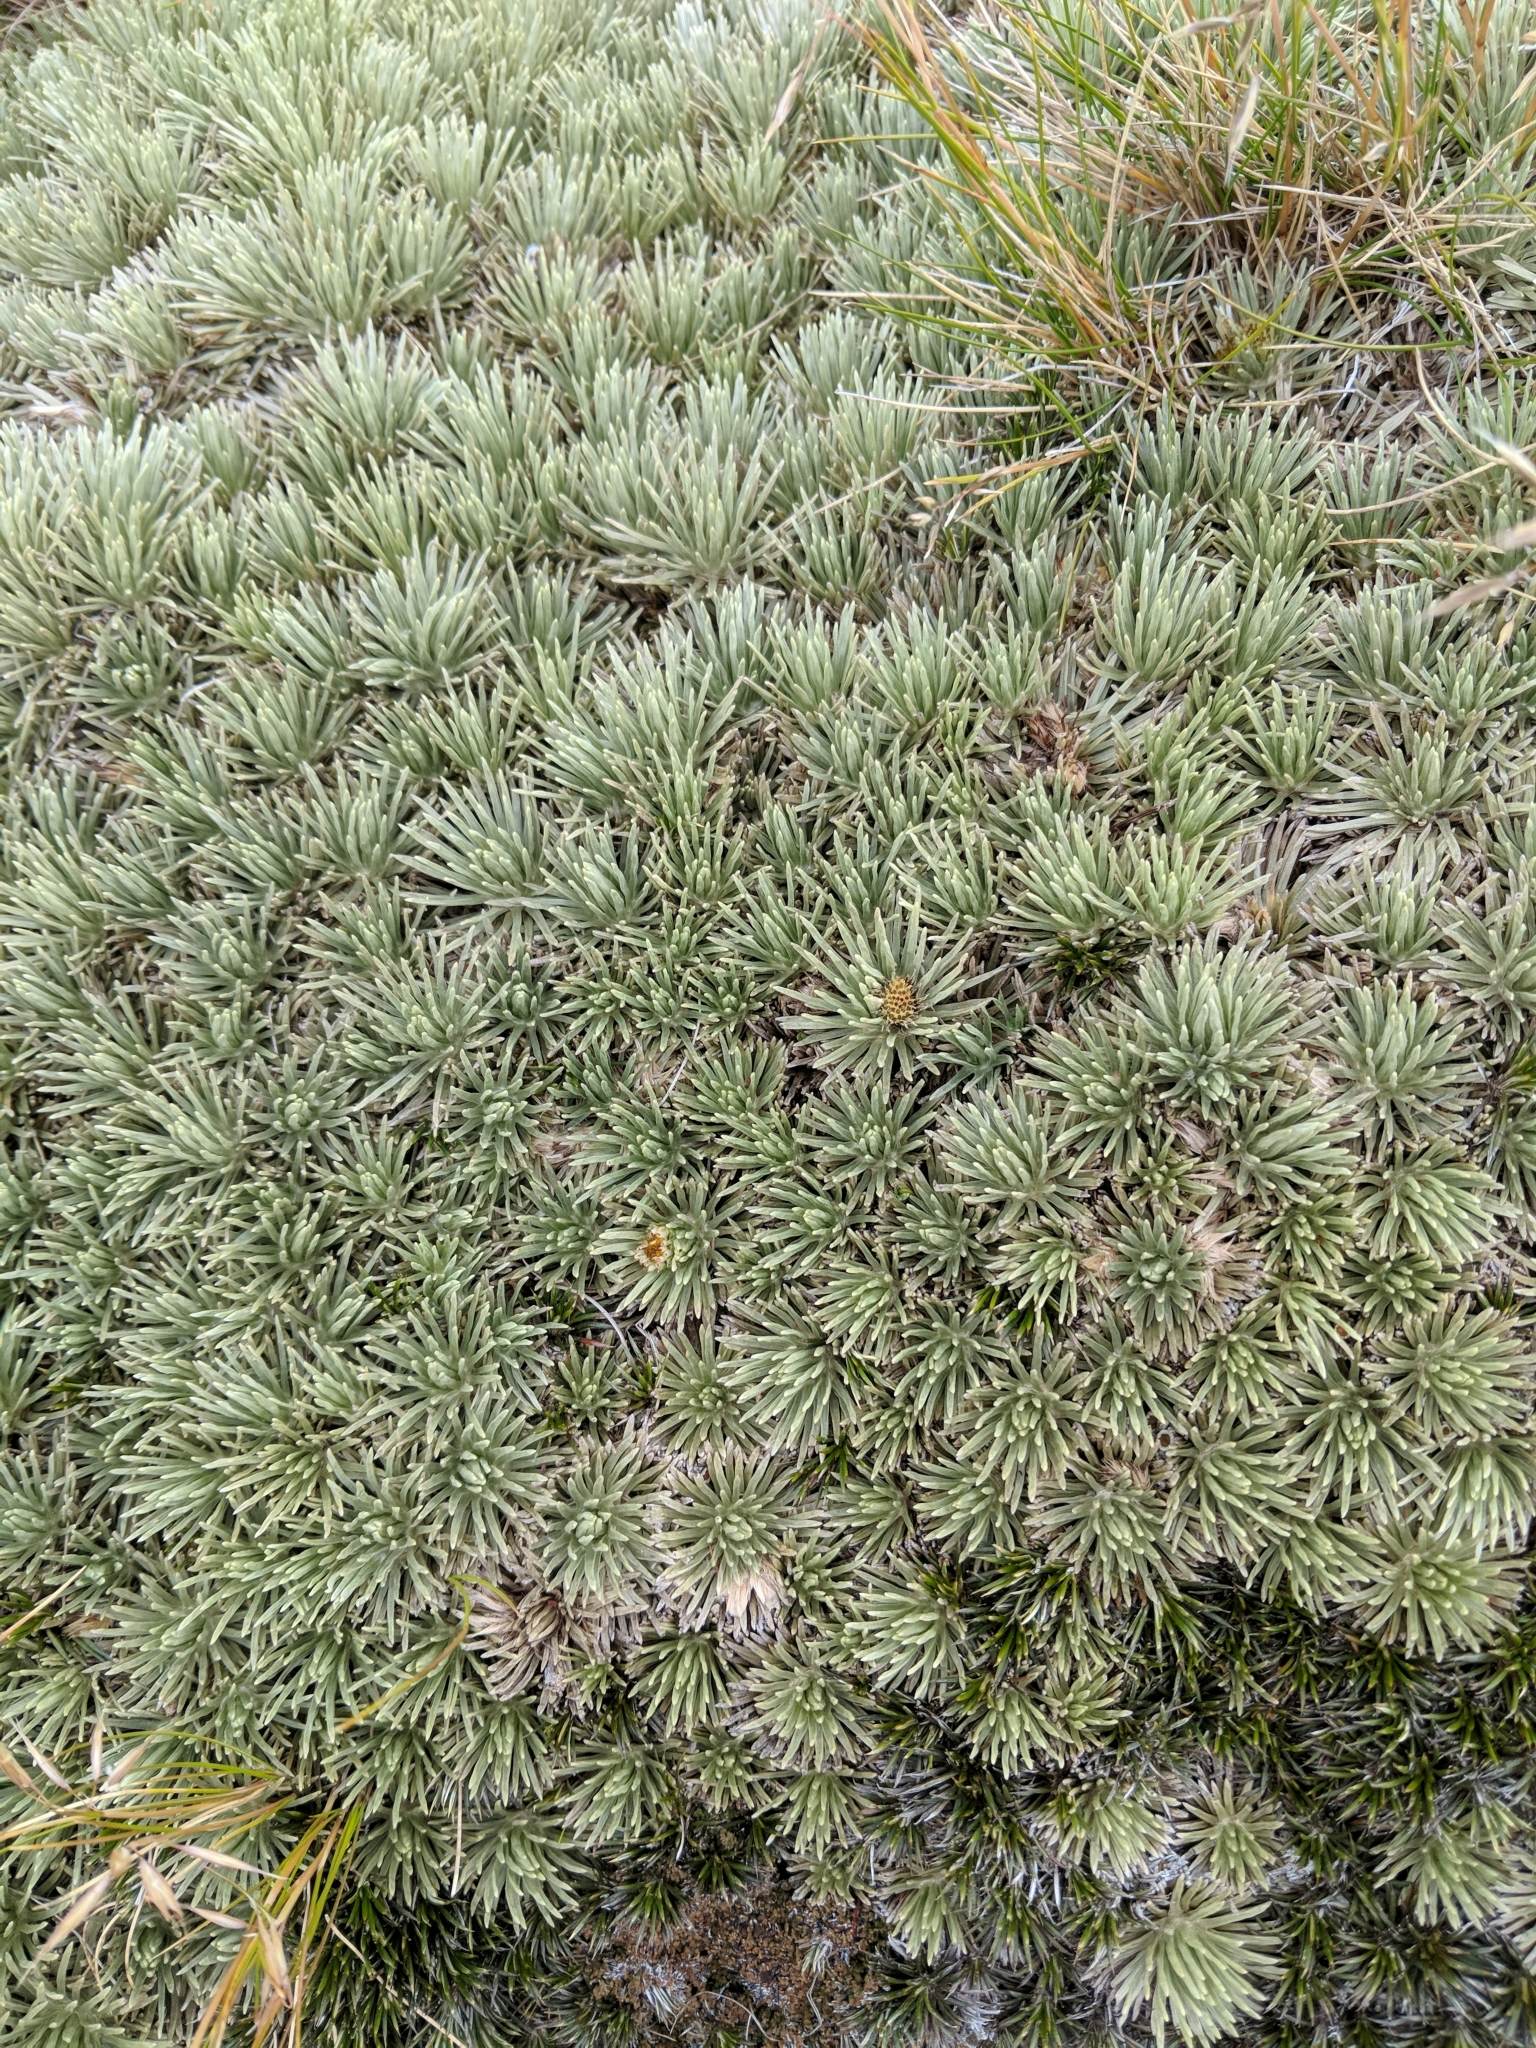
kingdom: Plantae
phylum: Tracheophyta
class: Magnoliopsida
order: Asterales
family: Asteraceae
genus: Celmisia
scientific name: Celmisia sessiliflora
